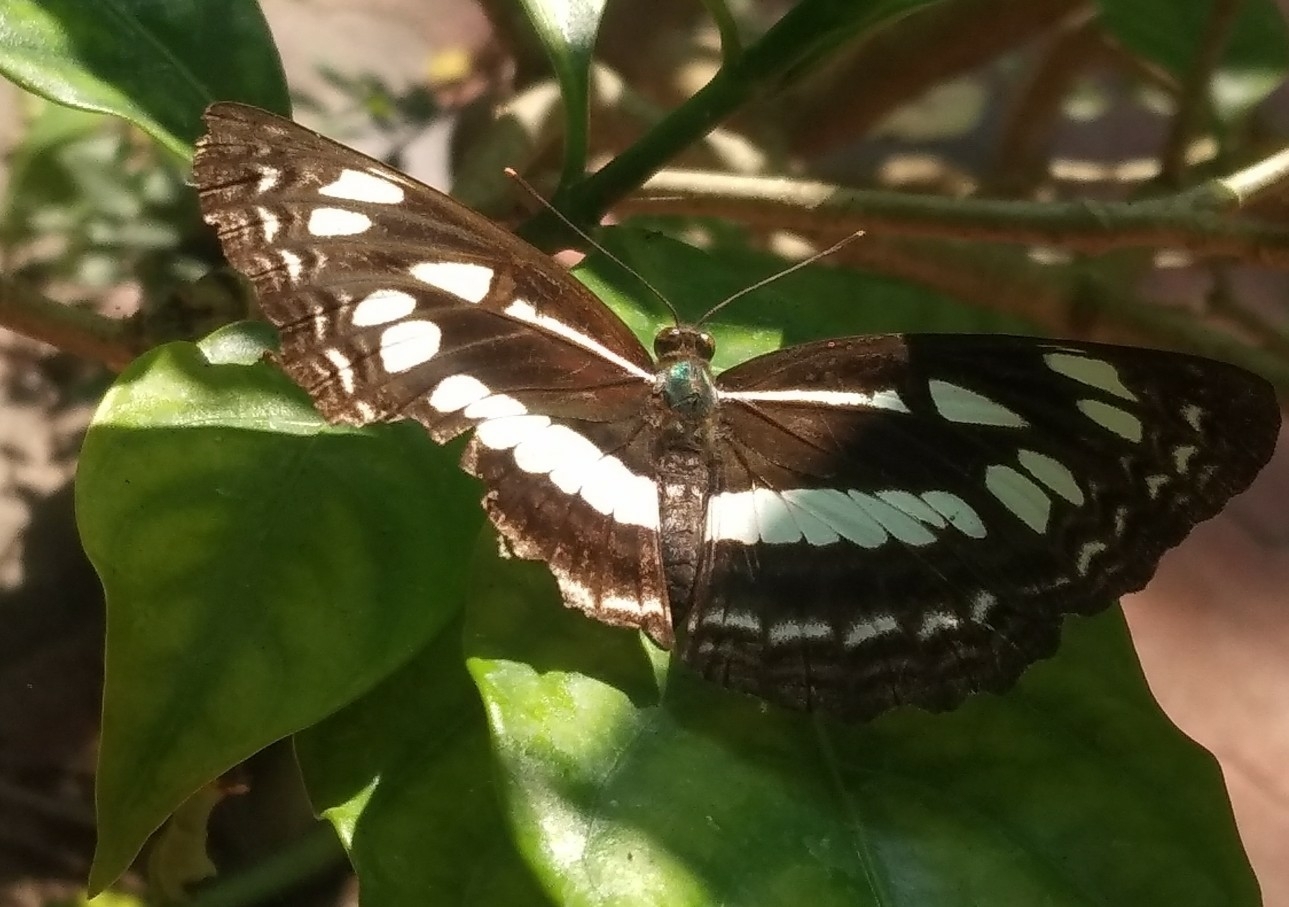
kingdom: Animalia
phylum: Arthropoda
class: Insecta
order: Lepidoptera
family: Nymphalidae
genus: Neptis
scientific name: Neptis jumbah
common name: Chestnut-streaked sailer
